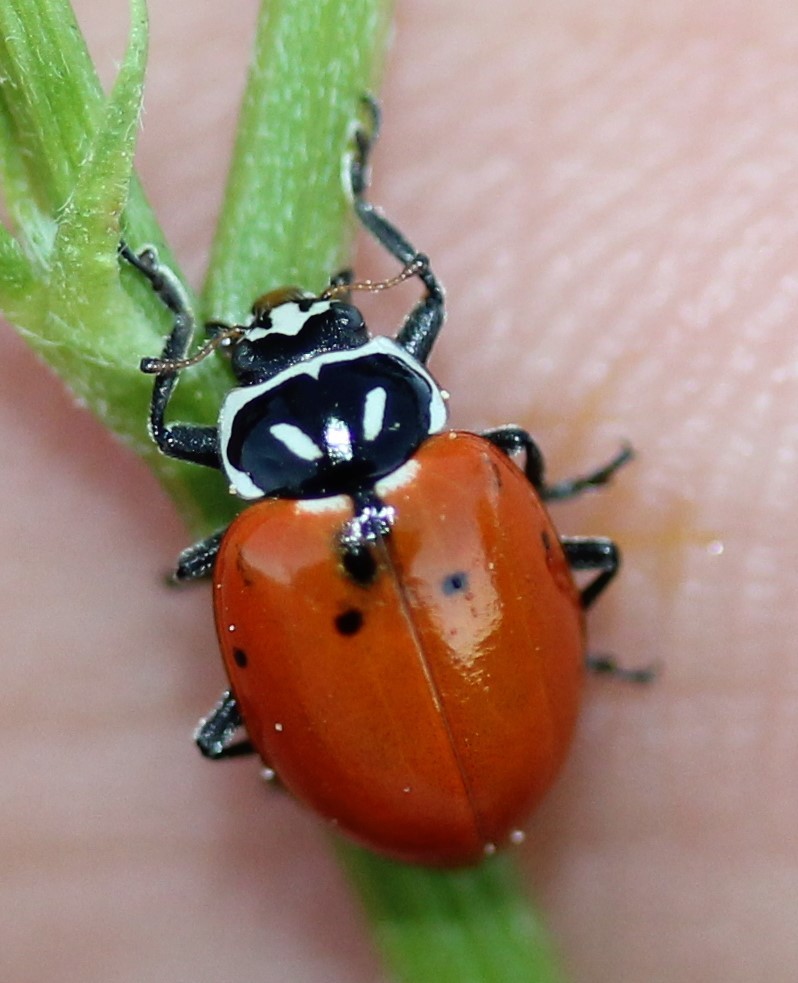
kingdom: Animalia
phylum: Arthropoda
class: Insecta
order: Coleoptera
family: Coccinellidae
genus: Hippodamia
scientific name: Hippodamia convergens
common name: Convergent lady beetle
